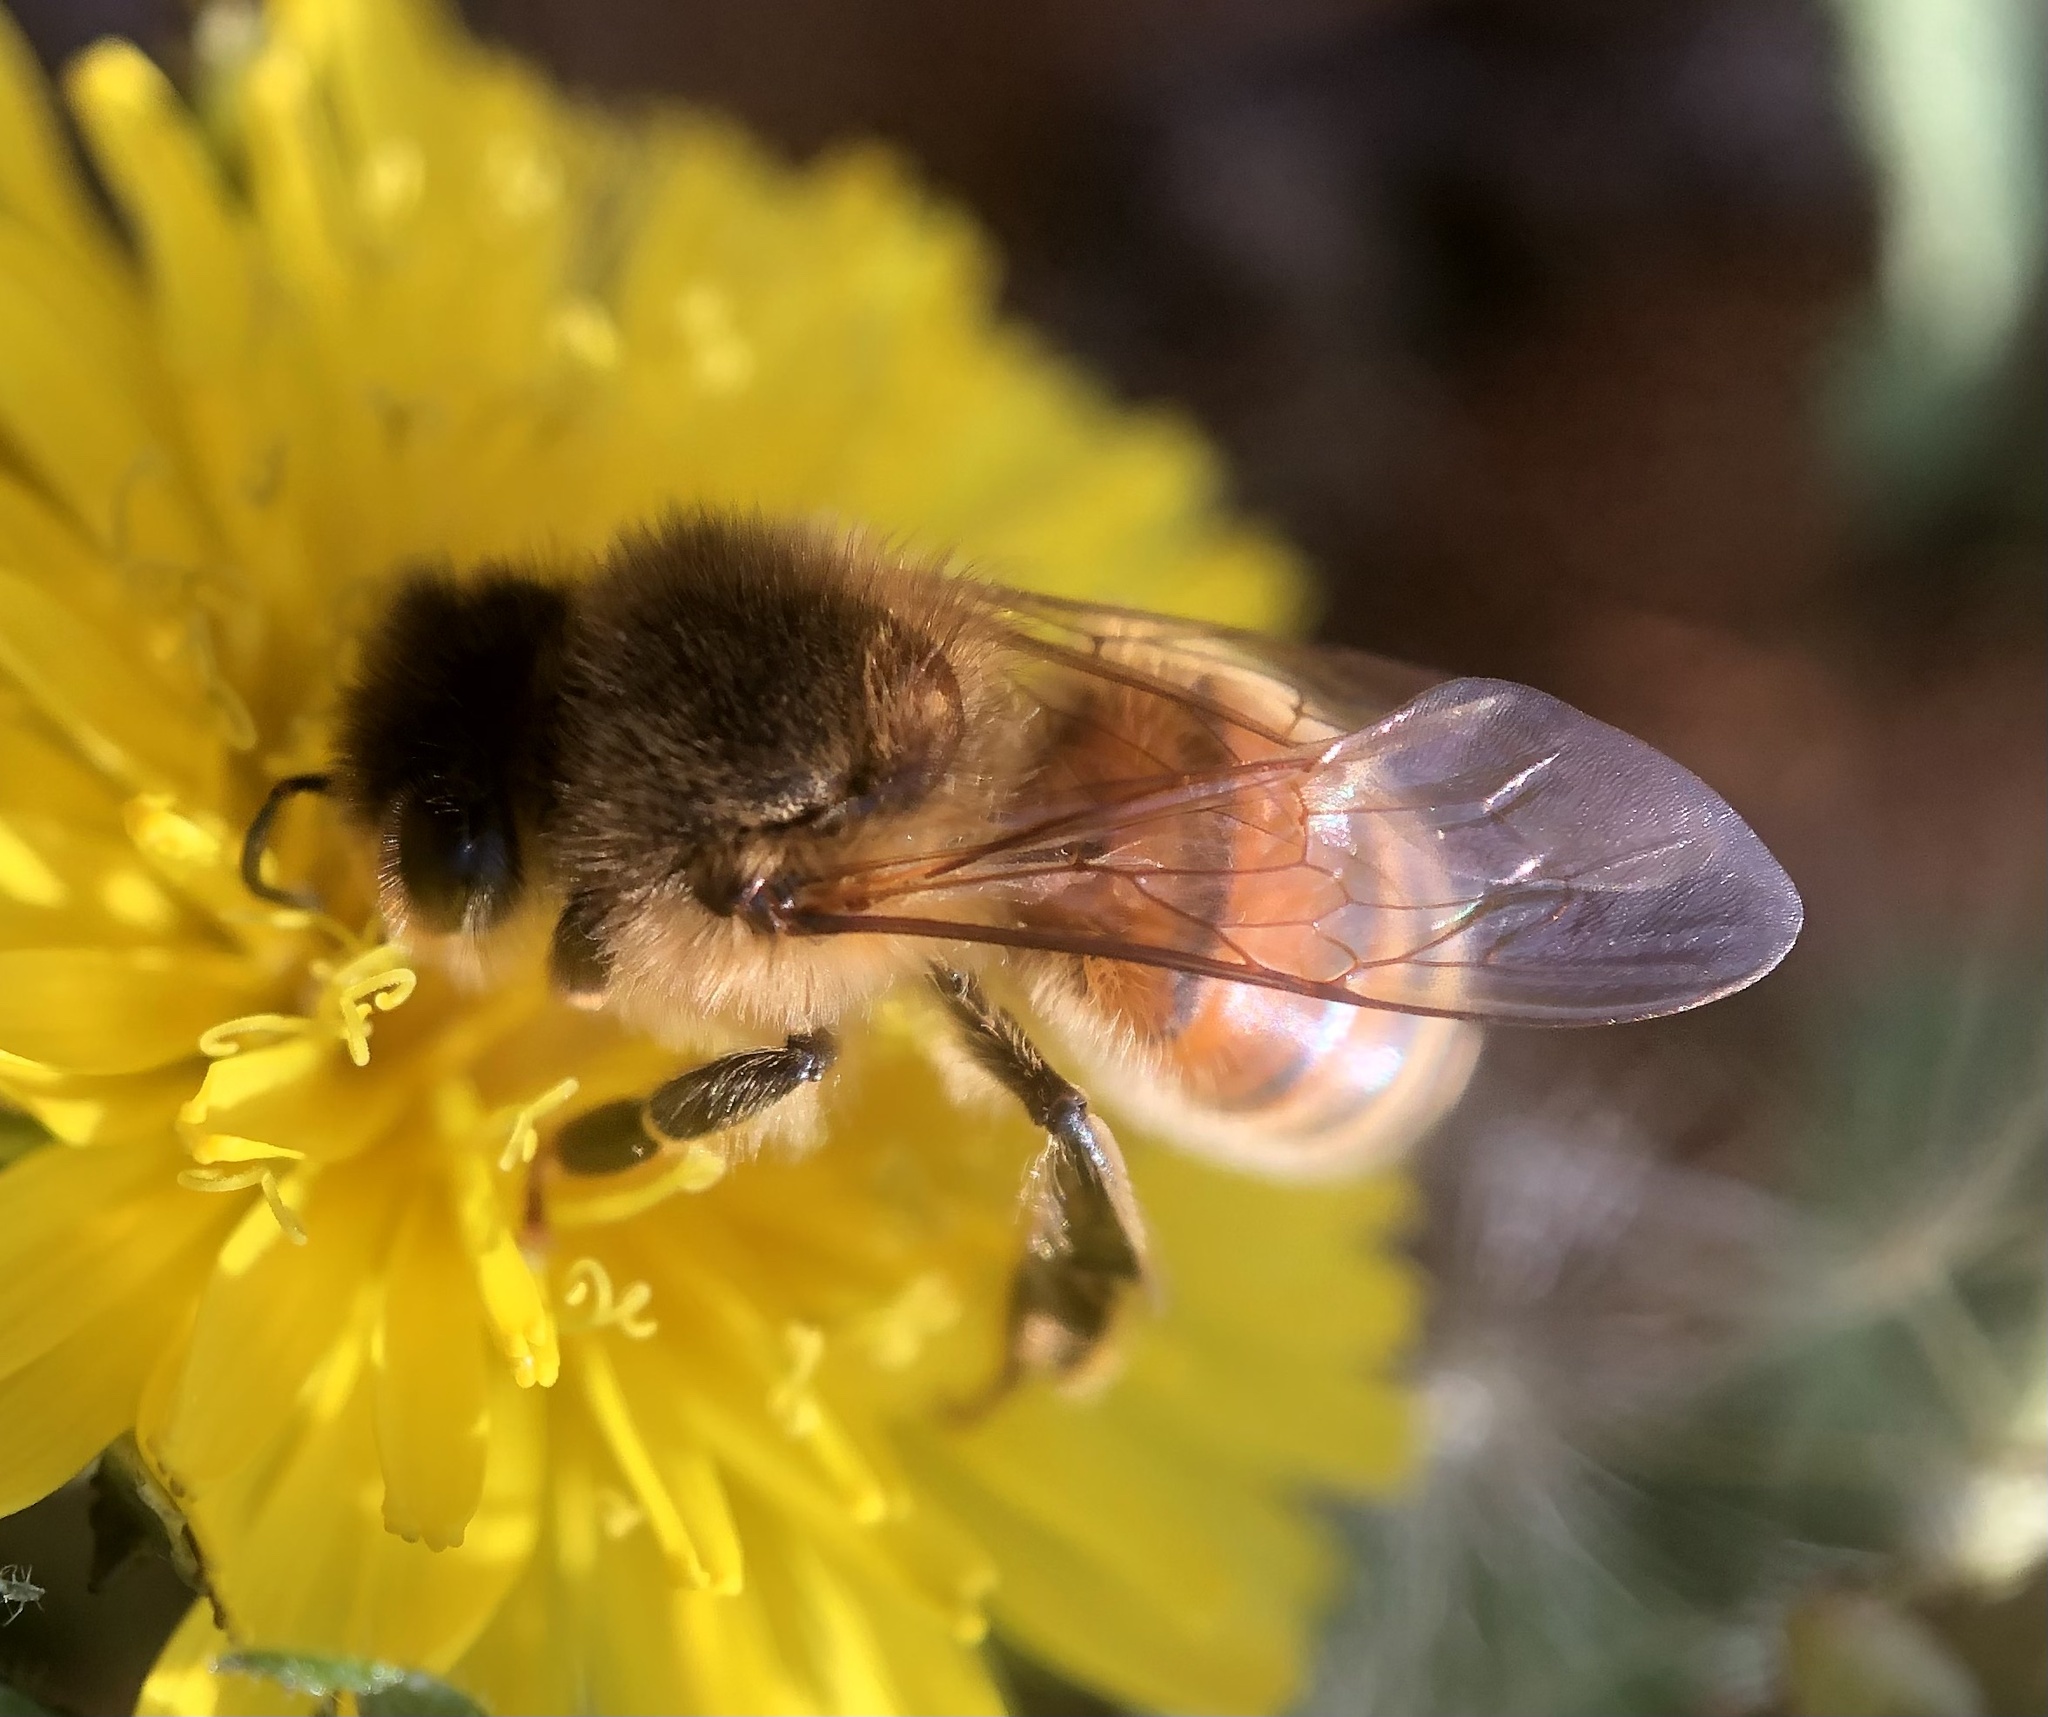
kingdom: Animalia
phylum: Arthropoda
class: Insecta
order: Hymenoptera
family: Apidae
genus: Apis
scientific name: Apis mellifera
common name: Honey bee
